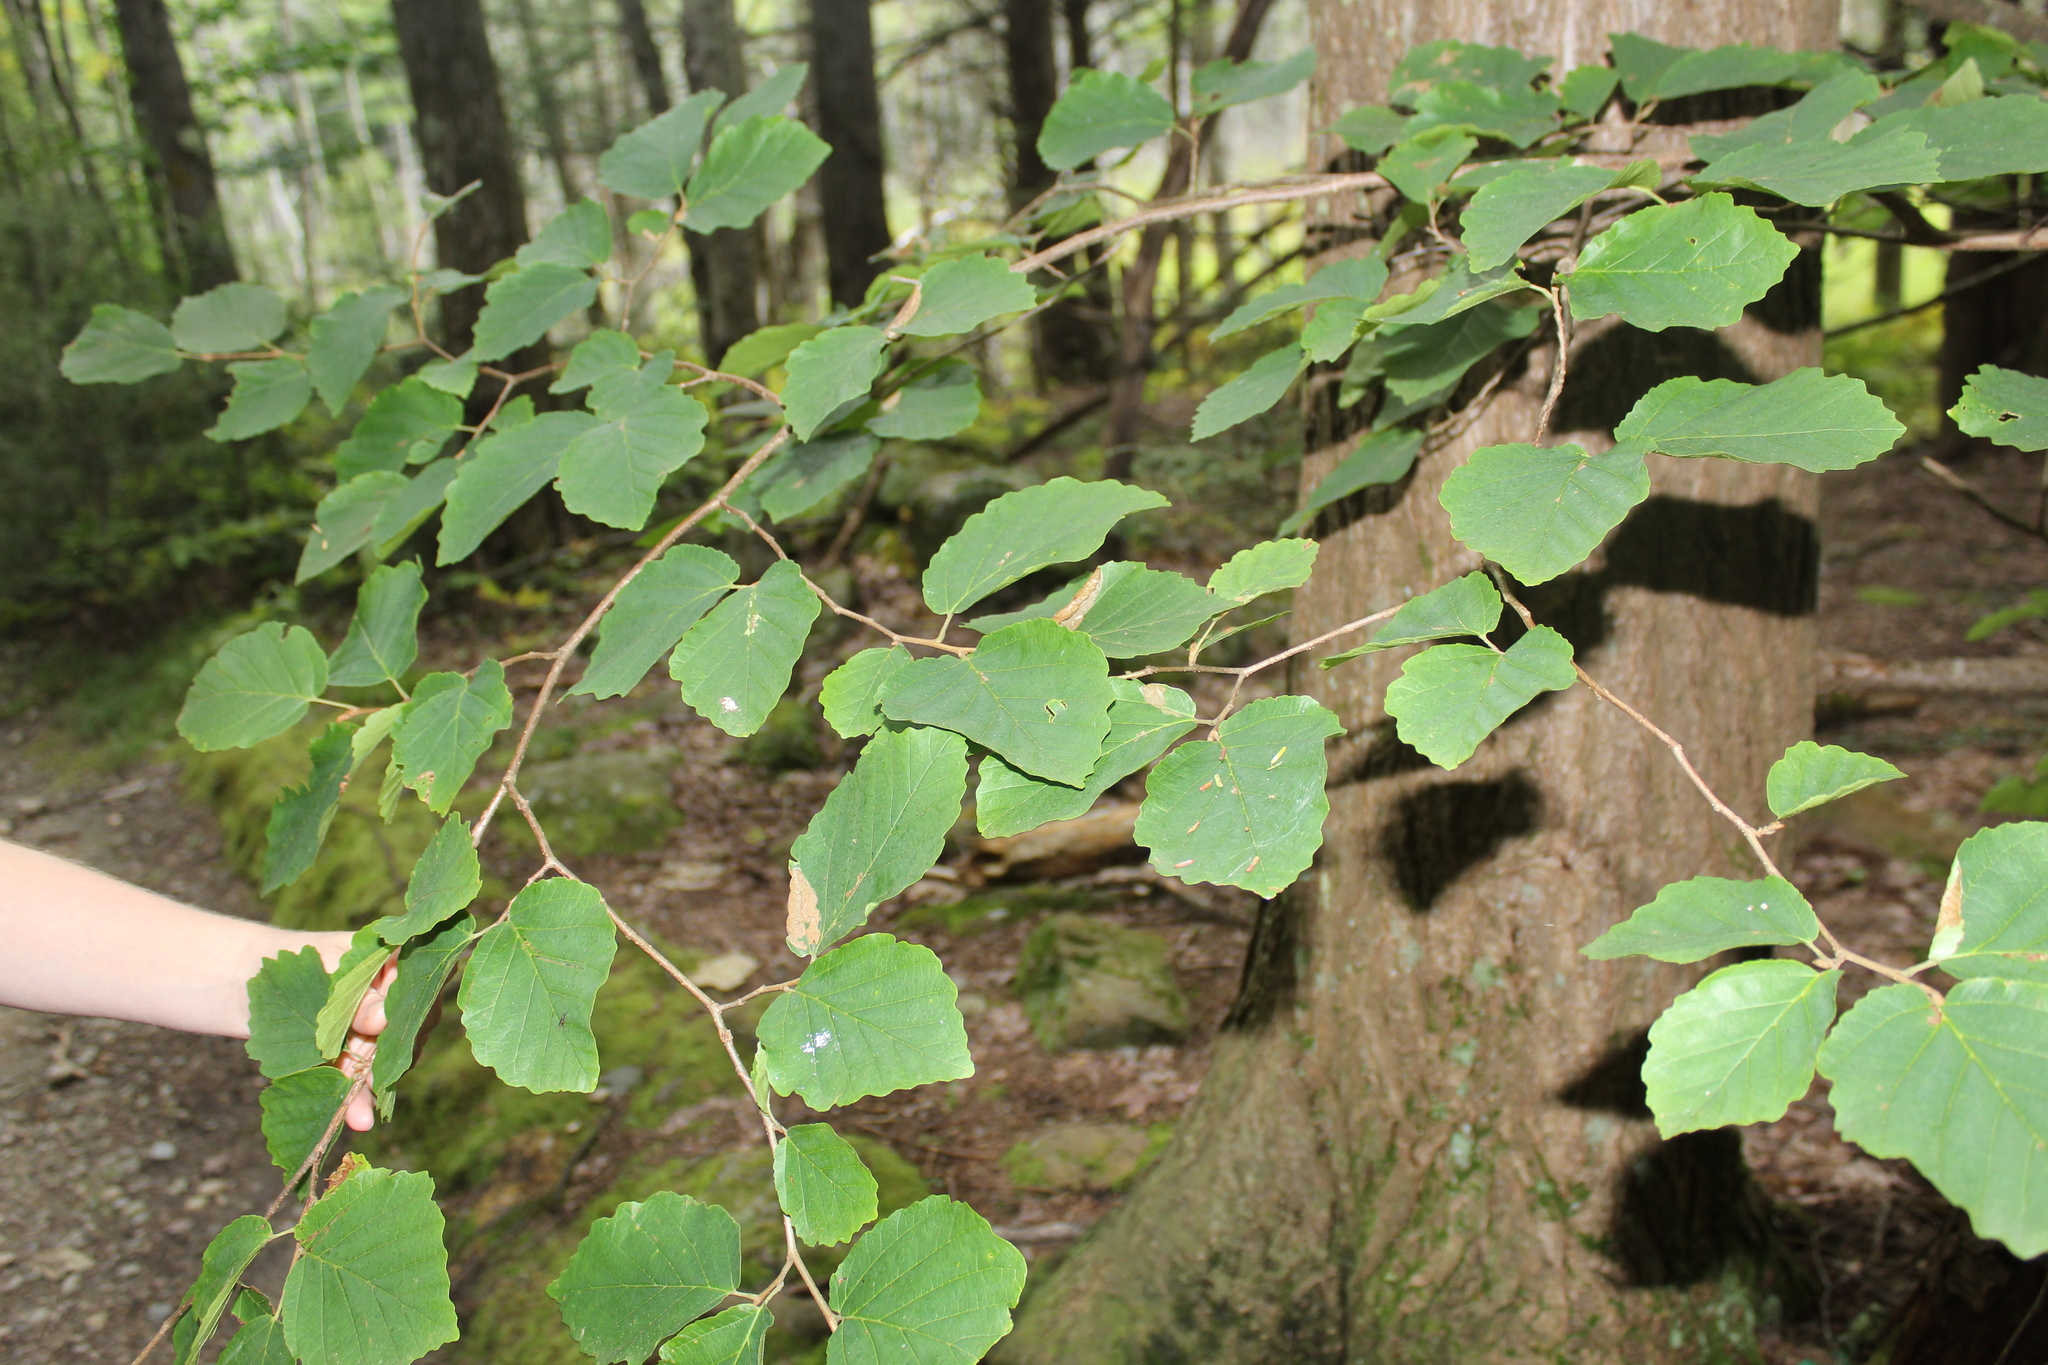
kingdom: Plantae
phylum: Tracheophyta
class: Magnoliopsida
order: Saxifragales
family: Hamamelidaceae
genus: Hamamelis
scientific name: Hamamelis virginiana
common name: Witch-hazel
